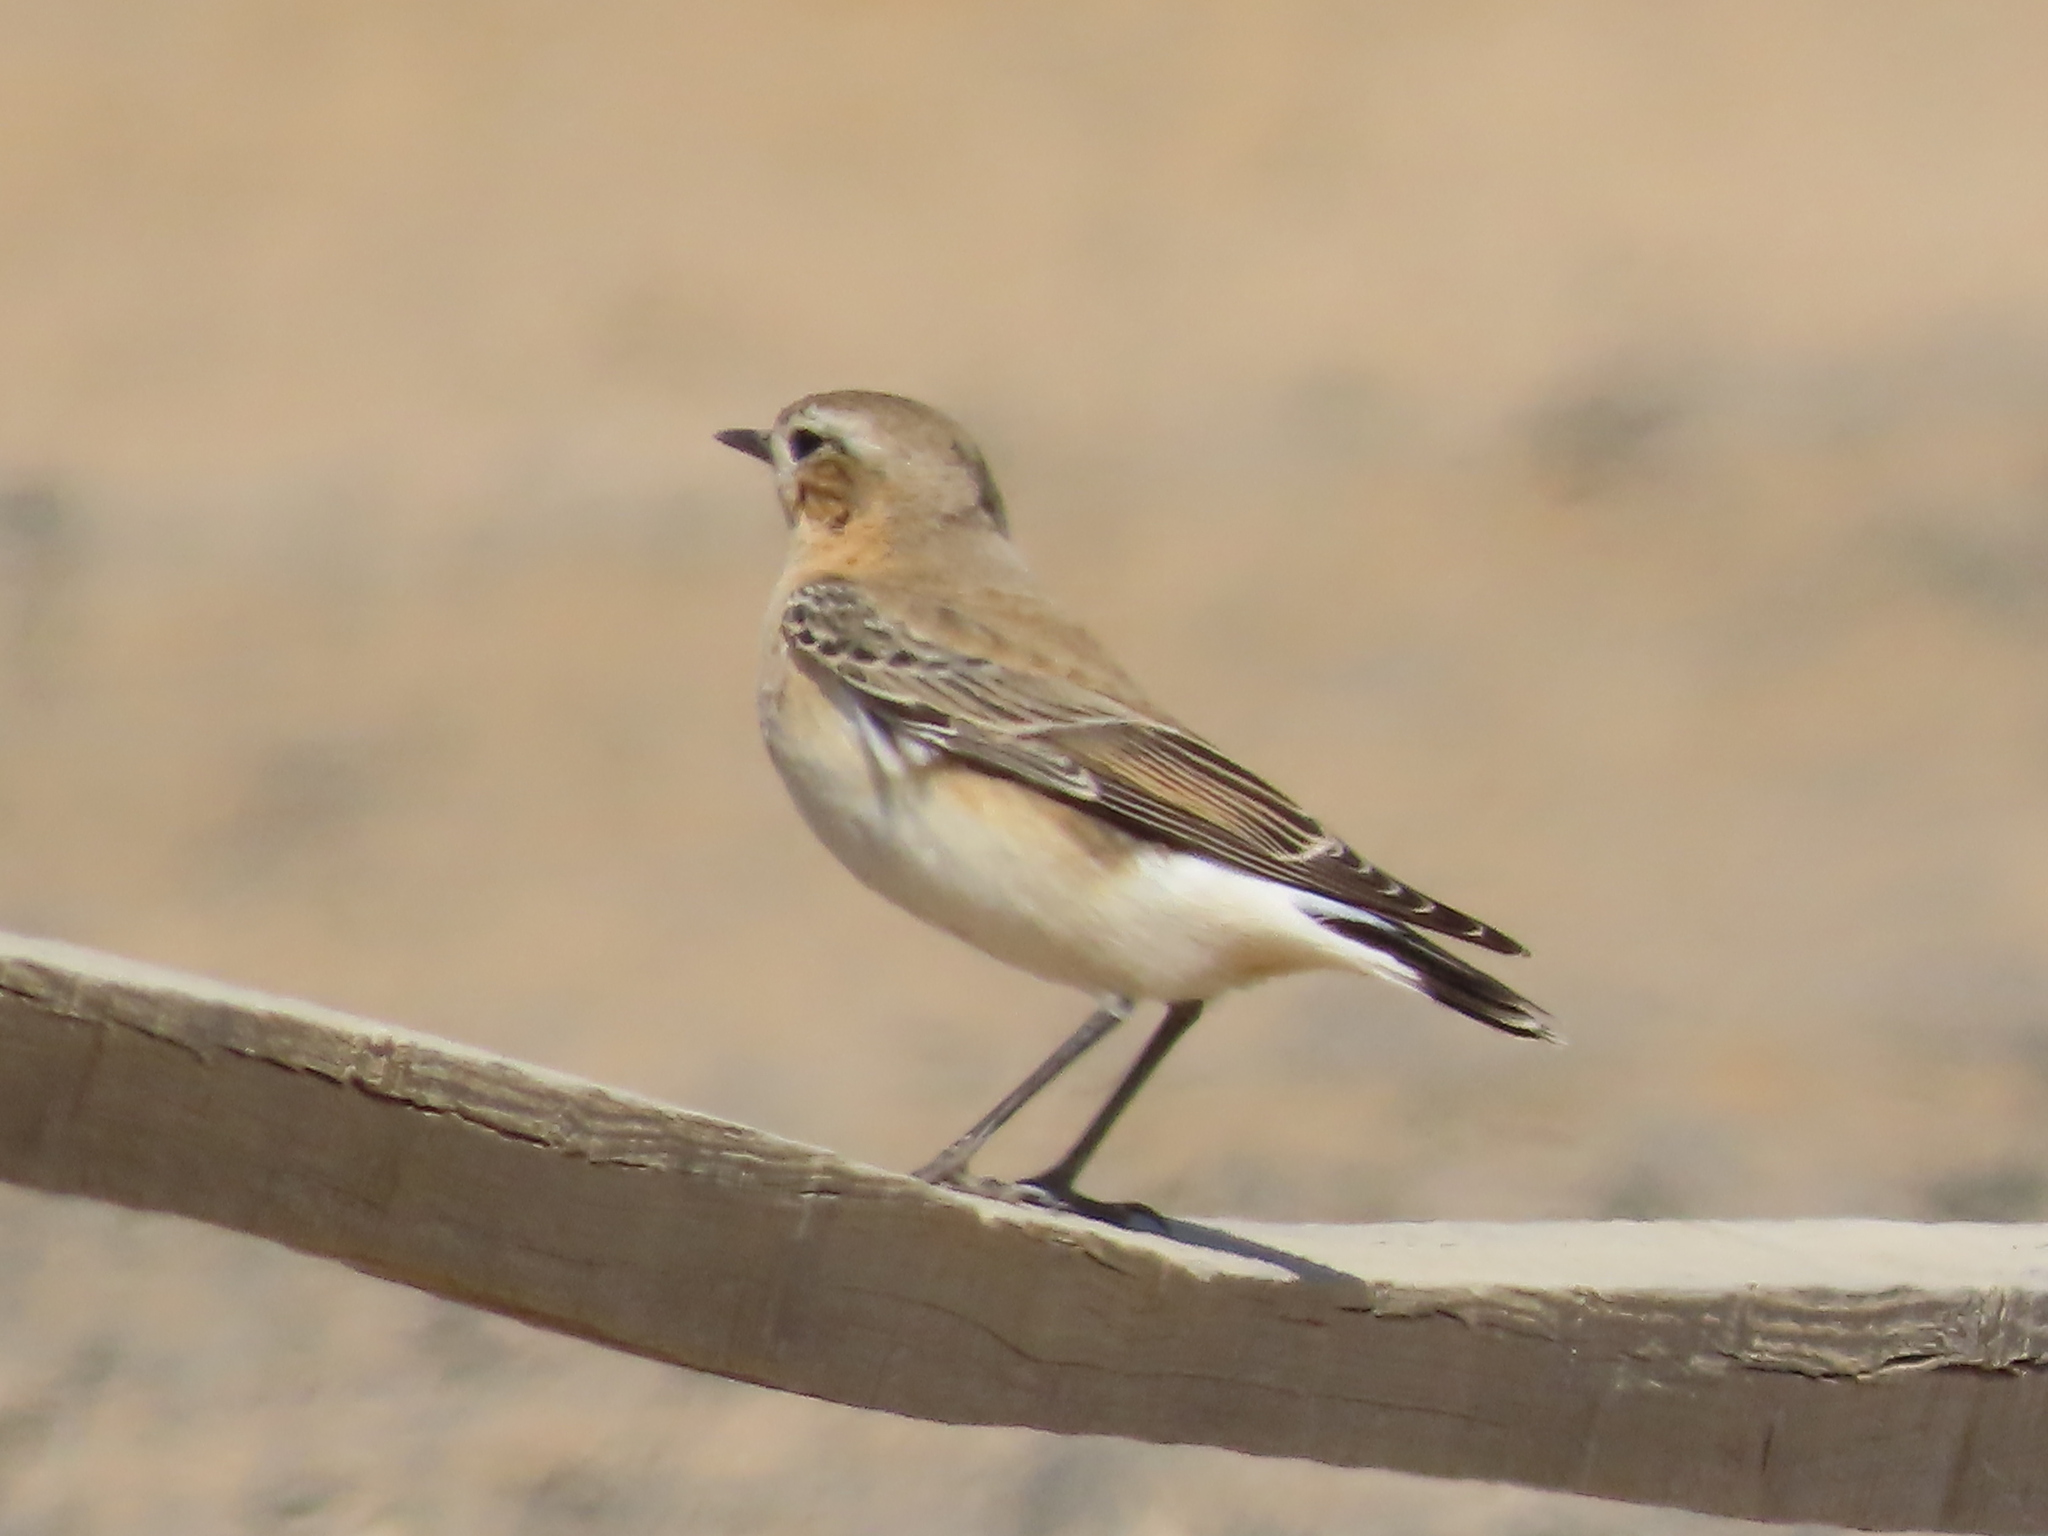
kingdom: Animalia
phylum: Chordata
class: Aves
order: Passeriformes
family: Muscicapidae
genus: Oenanthe
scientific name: Oenanthe oenanthe
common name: Northern wheatear
